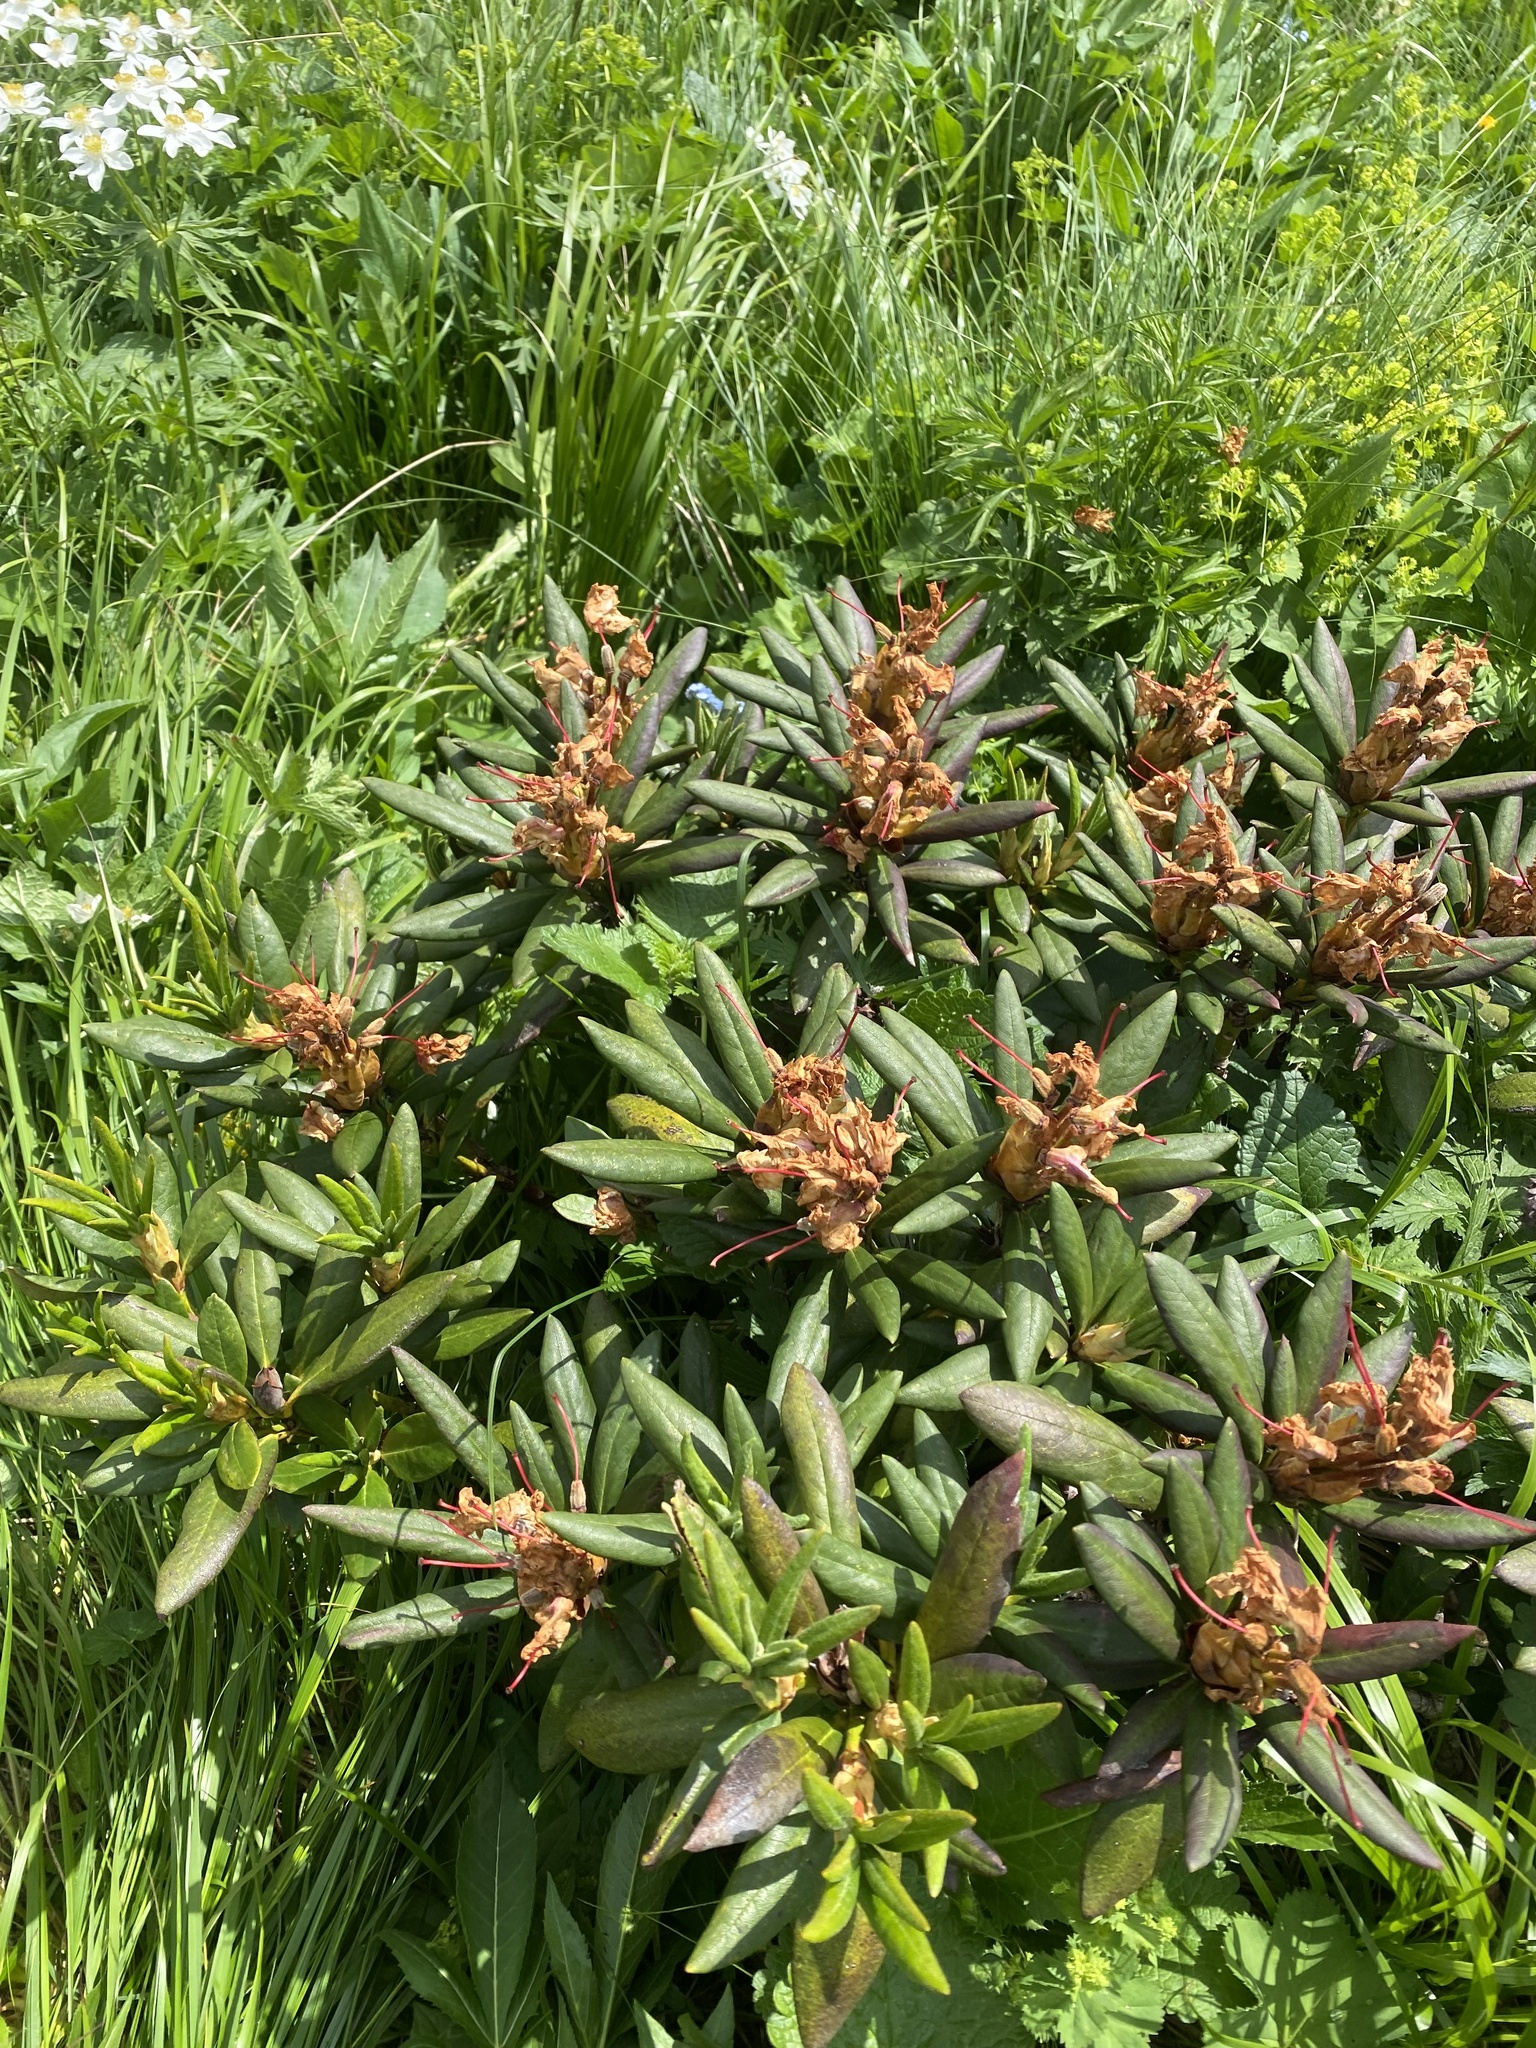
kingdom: Plantae
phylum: Tracheophyta
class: Magnoliopsida
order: Ericales
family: Ericaceae
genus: Rhododendron
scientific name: Rhododendron caucasicum
